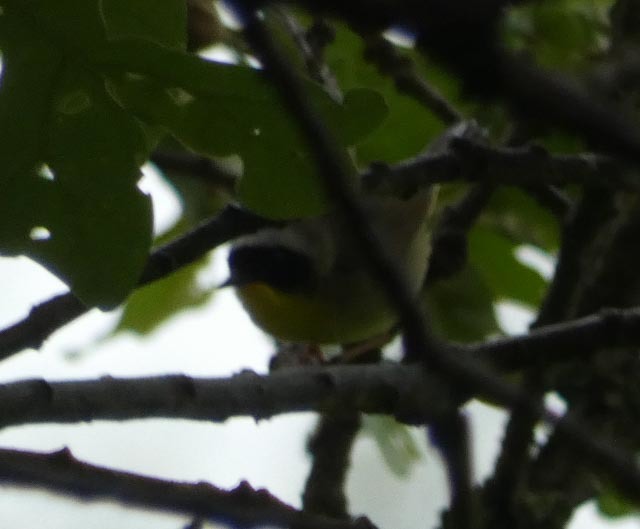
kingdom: Animalia
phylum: Chordata
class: Aves
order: Passeriformes
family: Parulidae
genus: Geothlypis
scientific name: Geothlypis trichas
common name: Common yellowthroat
